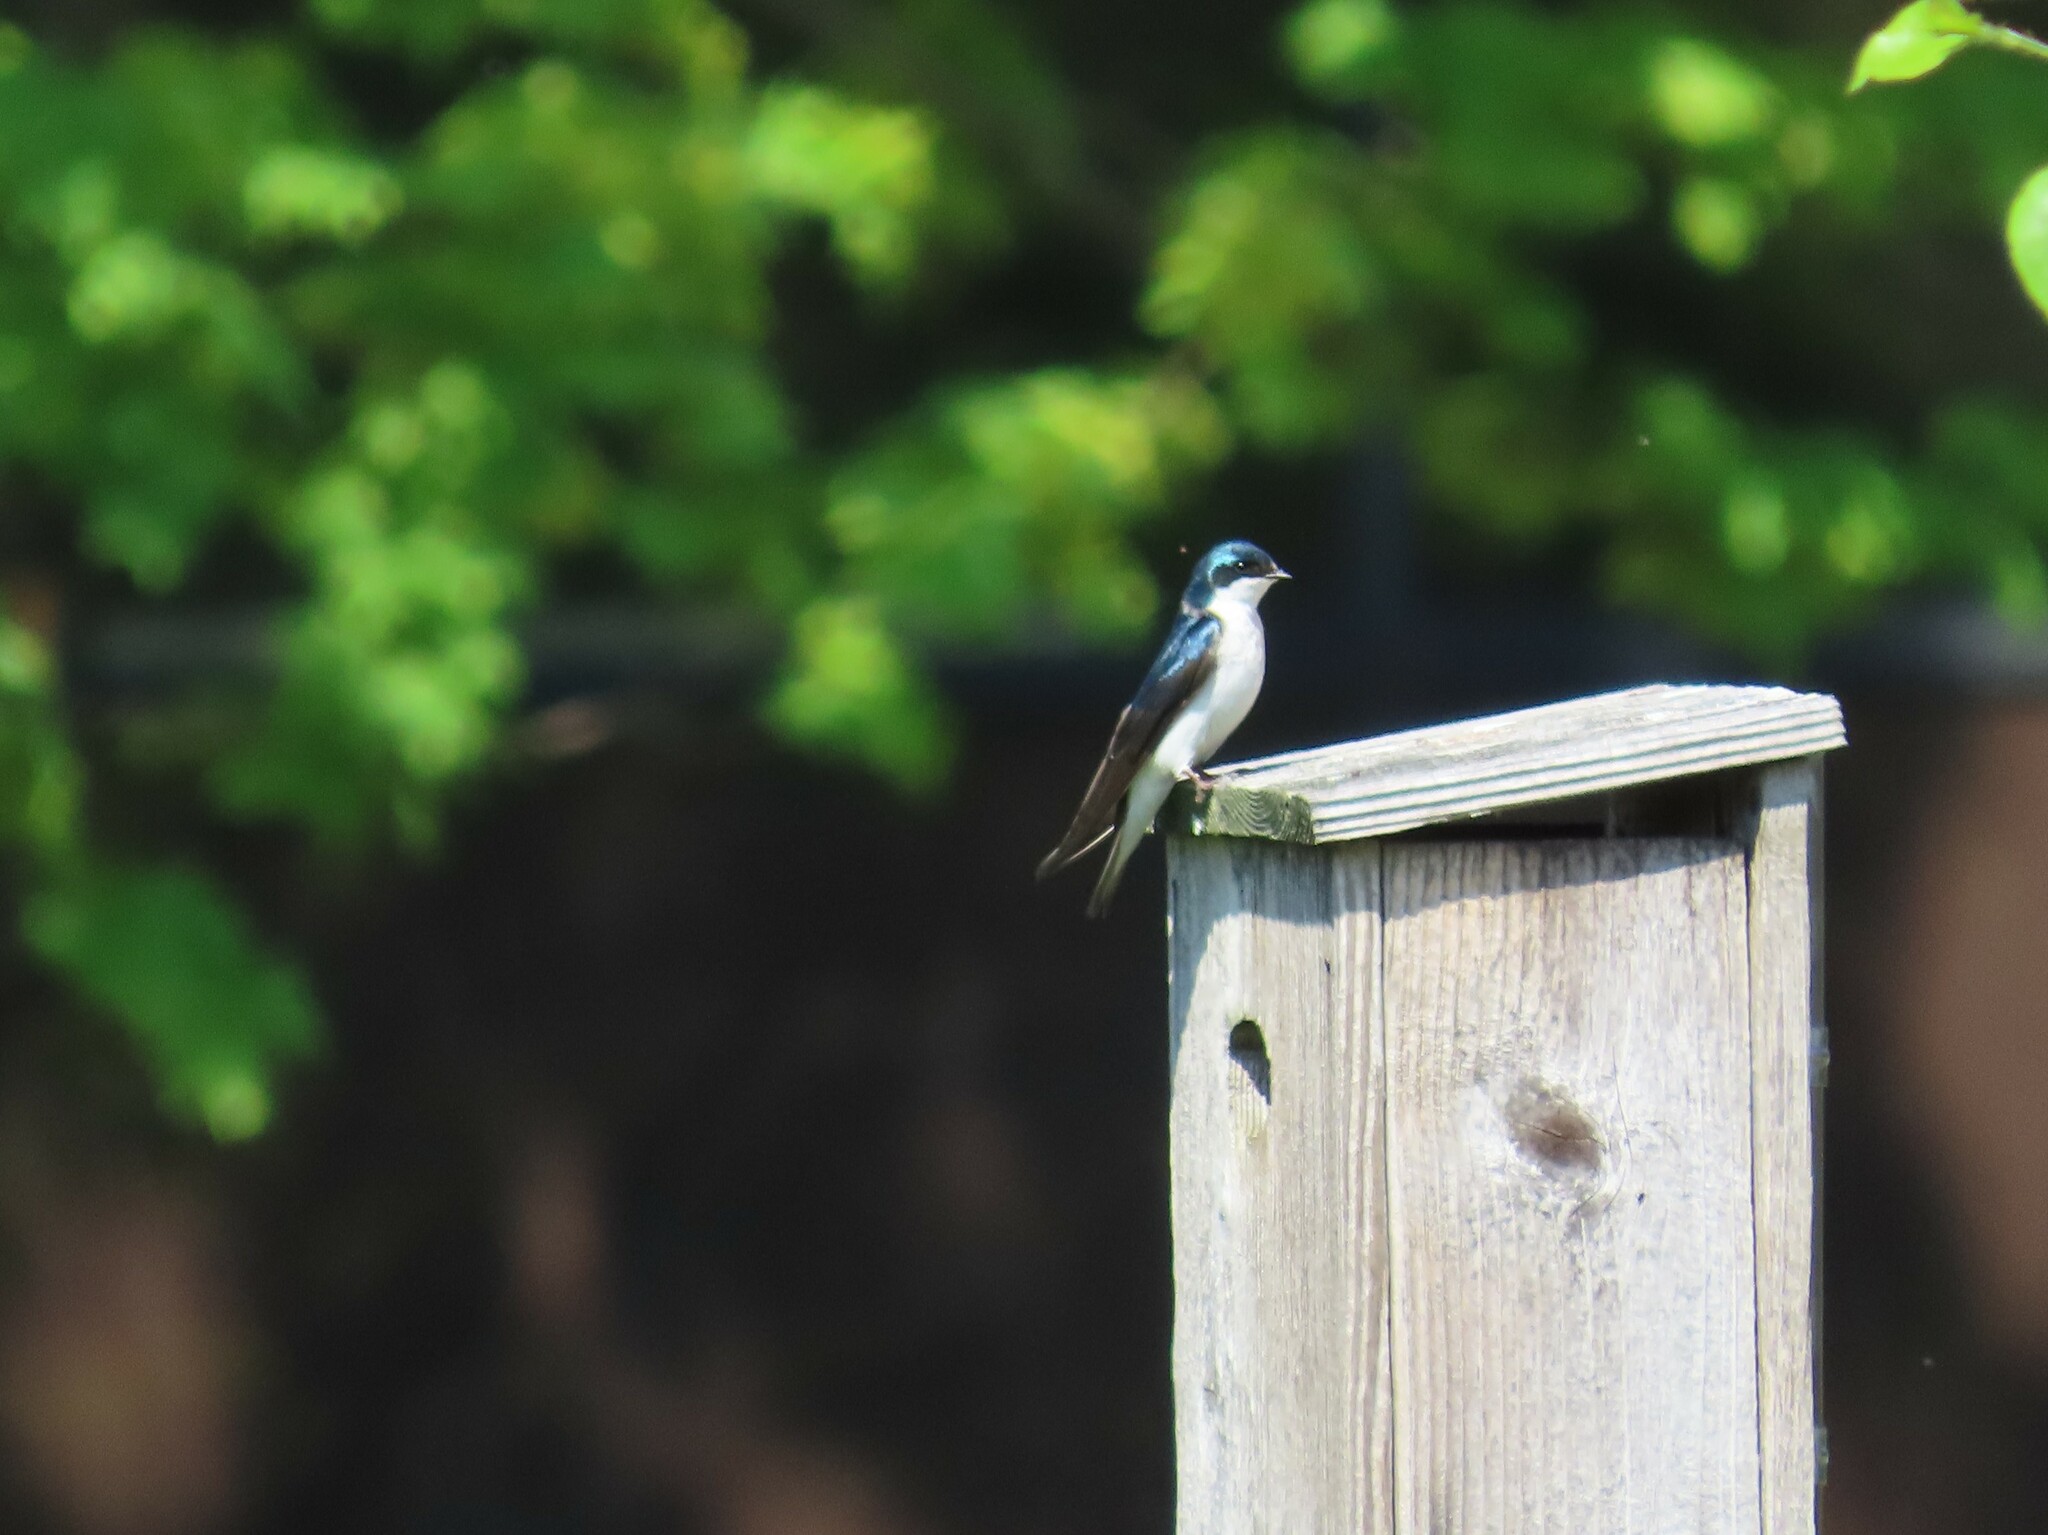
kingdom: Animalia
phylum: Chordata
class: Aves
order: Passeriformes
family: Hirundinidae
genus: Tachycineta
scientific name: Tachycineta bicolor
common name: Tree swallow
